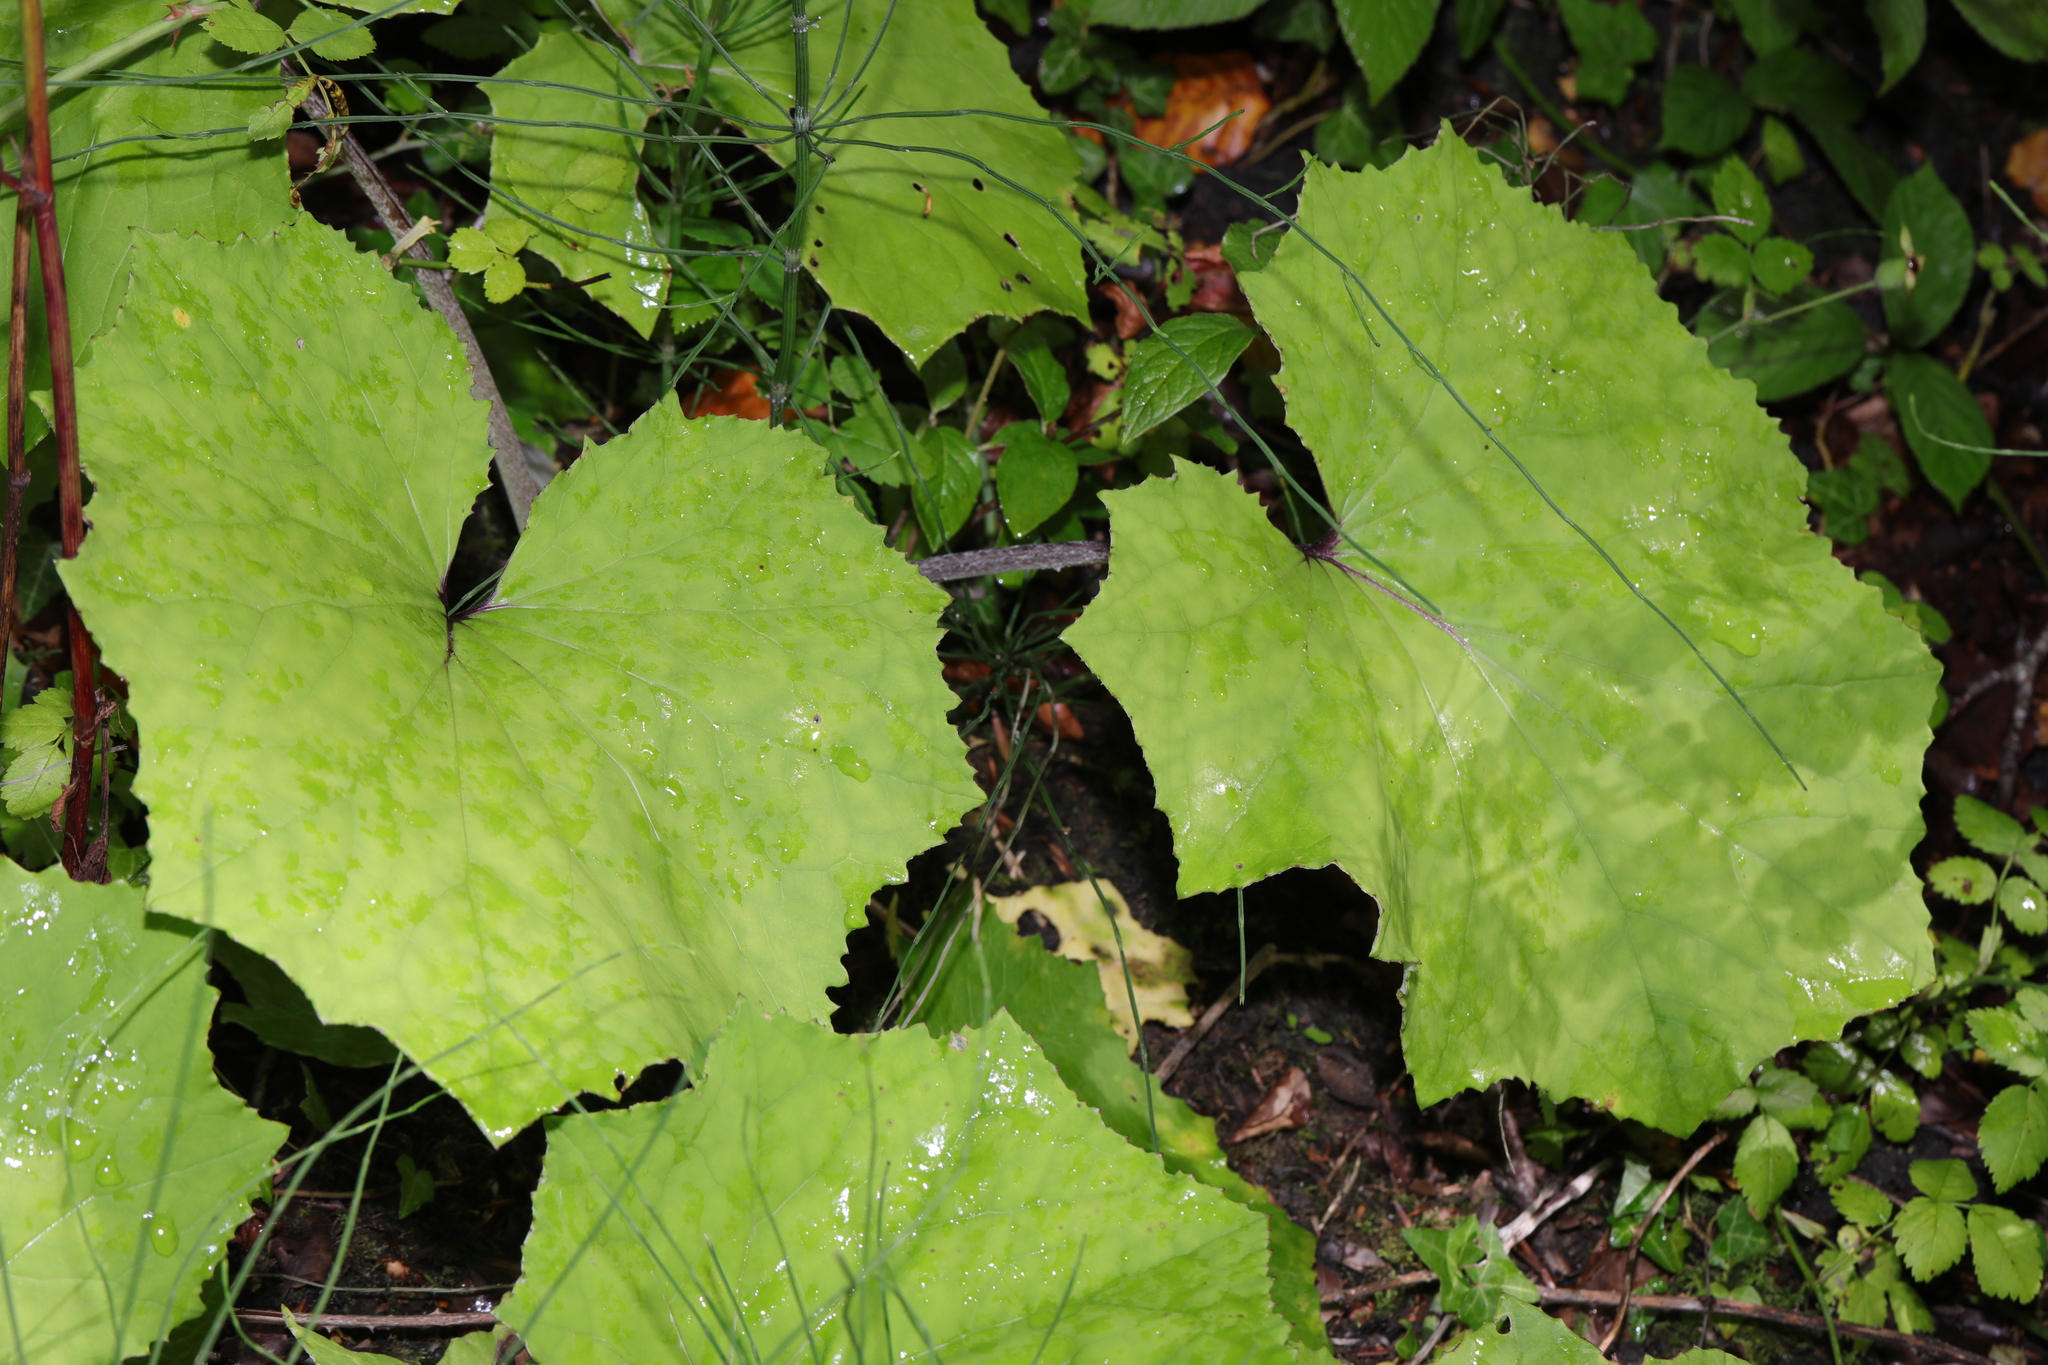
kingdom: Plantae
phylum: Tracheophyta
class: Magnoliopsida
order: Asterales
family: Asteraceae
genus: Tussilago
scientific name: Tussilago farfara
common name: Coltsfoot
